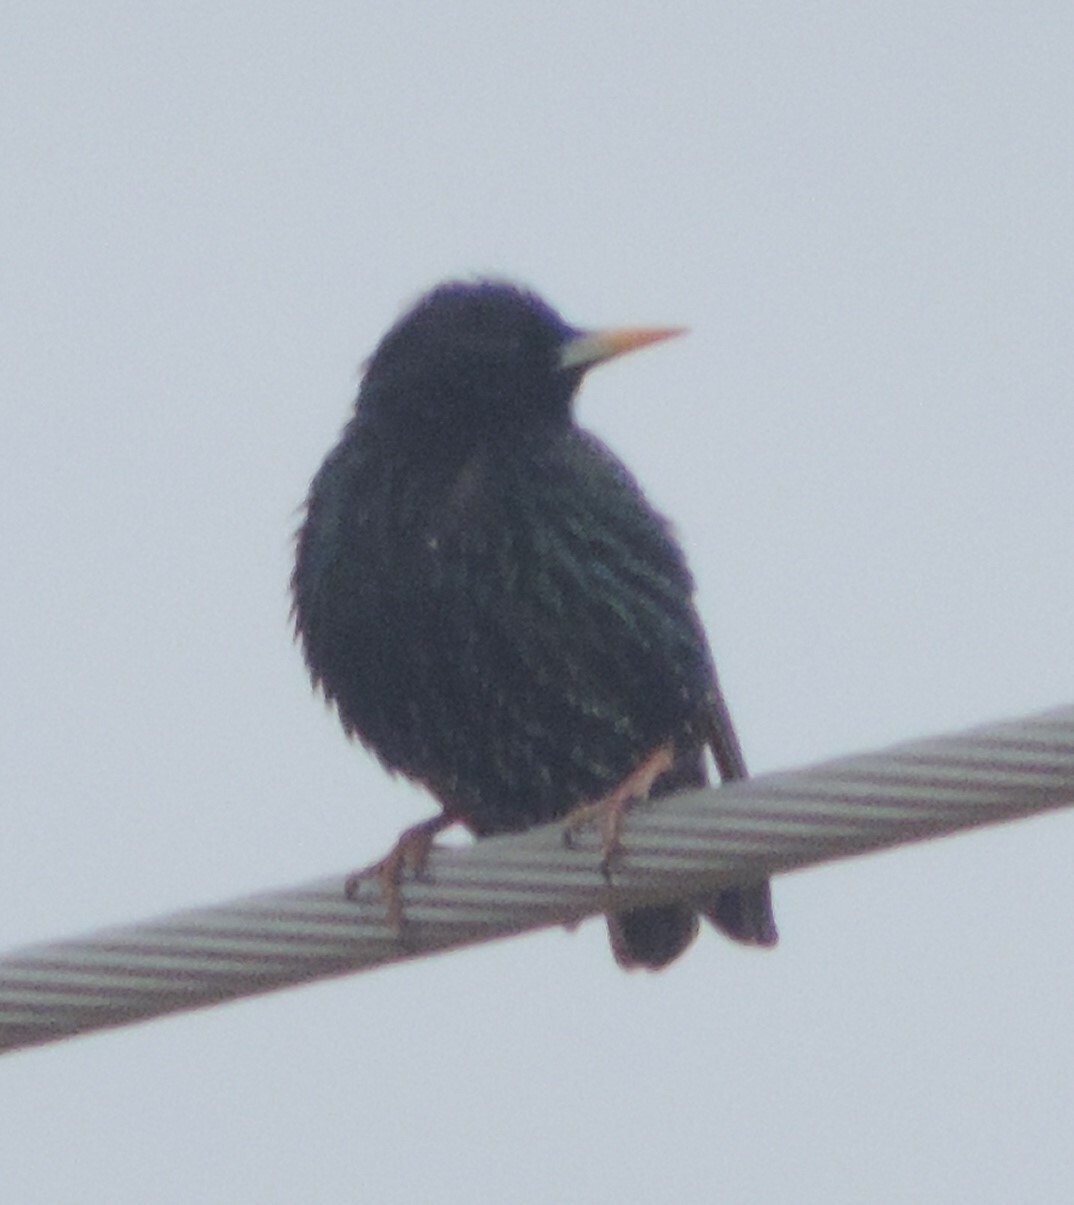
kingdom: Animalia
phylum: Chordata
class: Aves
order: Passeriformes
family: Sturnidae
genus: Sturnus
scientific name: Sturnus vulgaris
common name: Common starling
